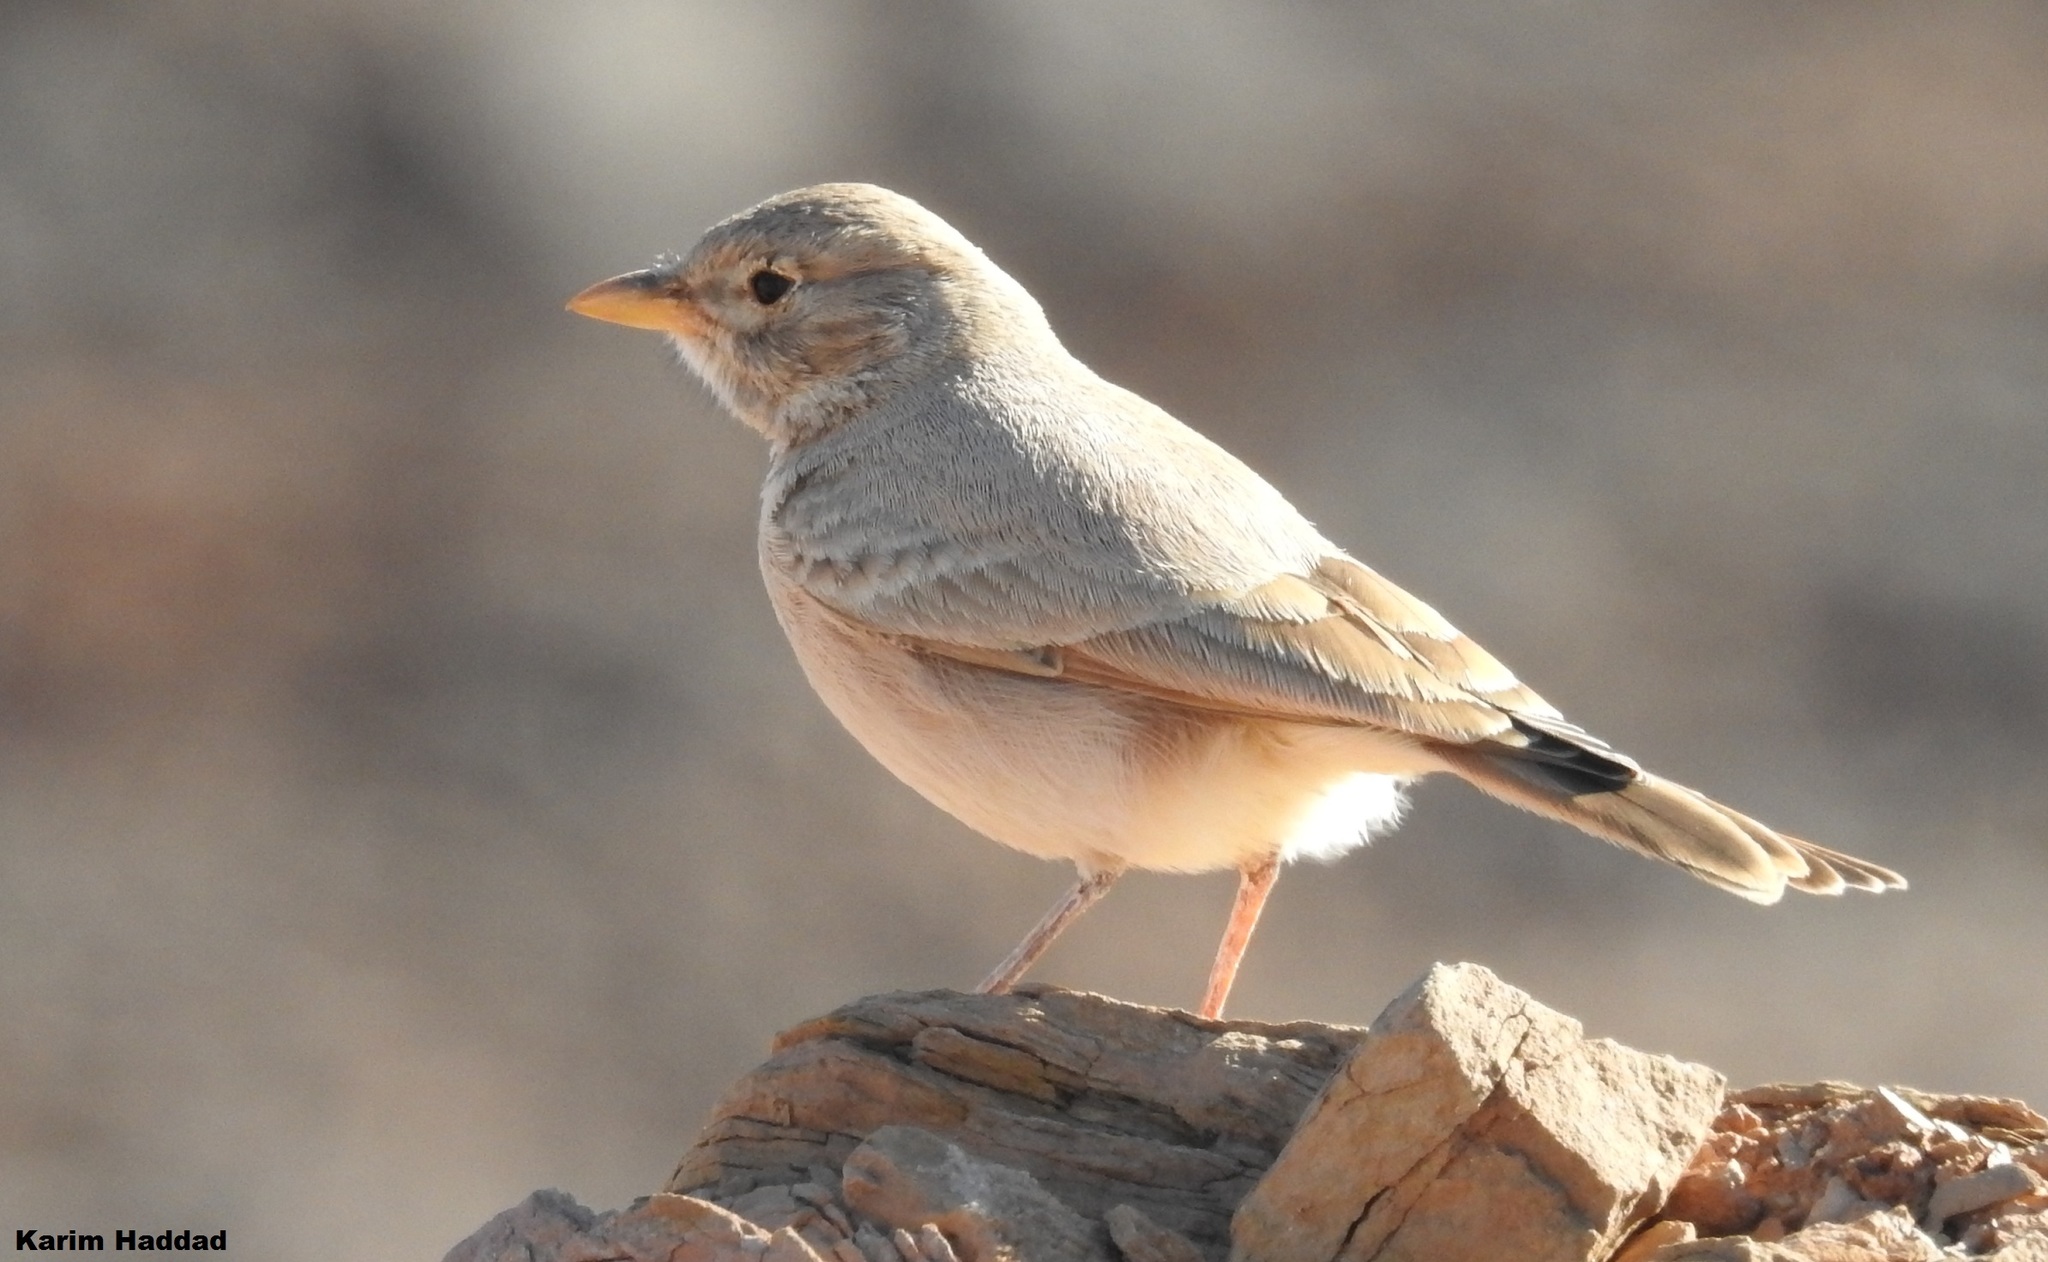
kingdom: Animalia
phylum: Chordata
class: Aves
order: Passeriformes
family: Alaudidae
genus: Ammomanes
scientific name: Ammomanes deserti
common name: Desert lark
